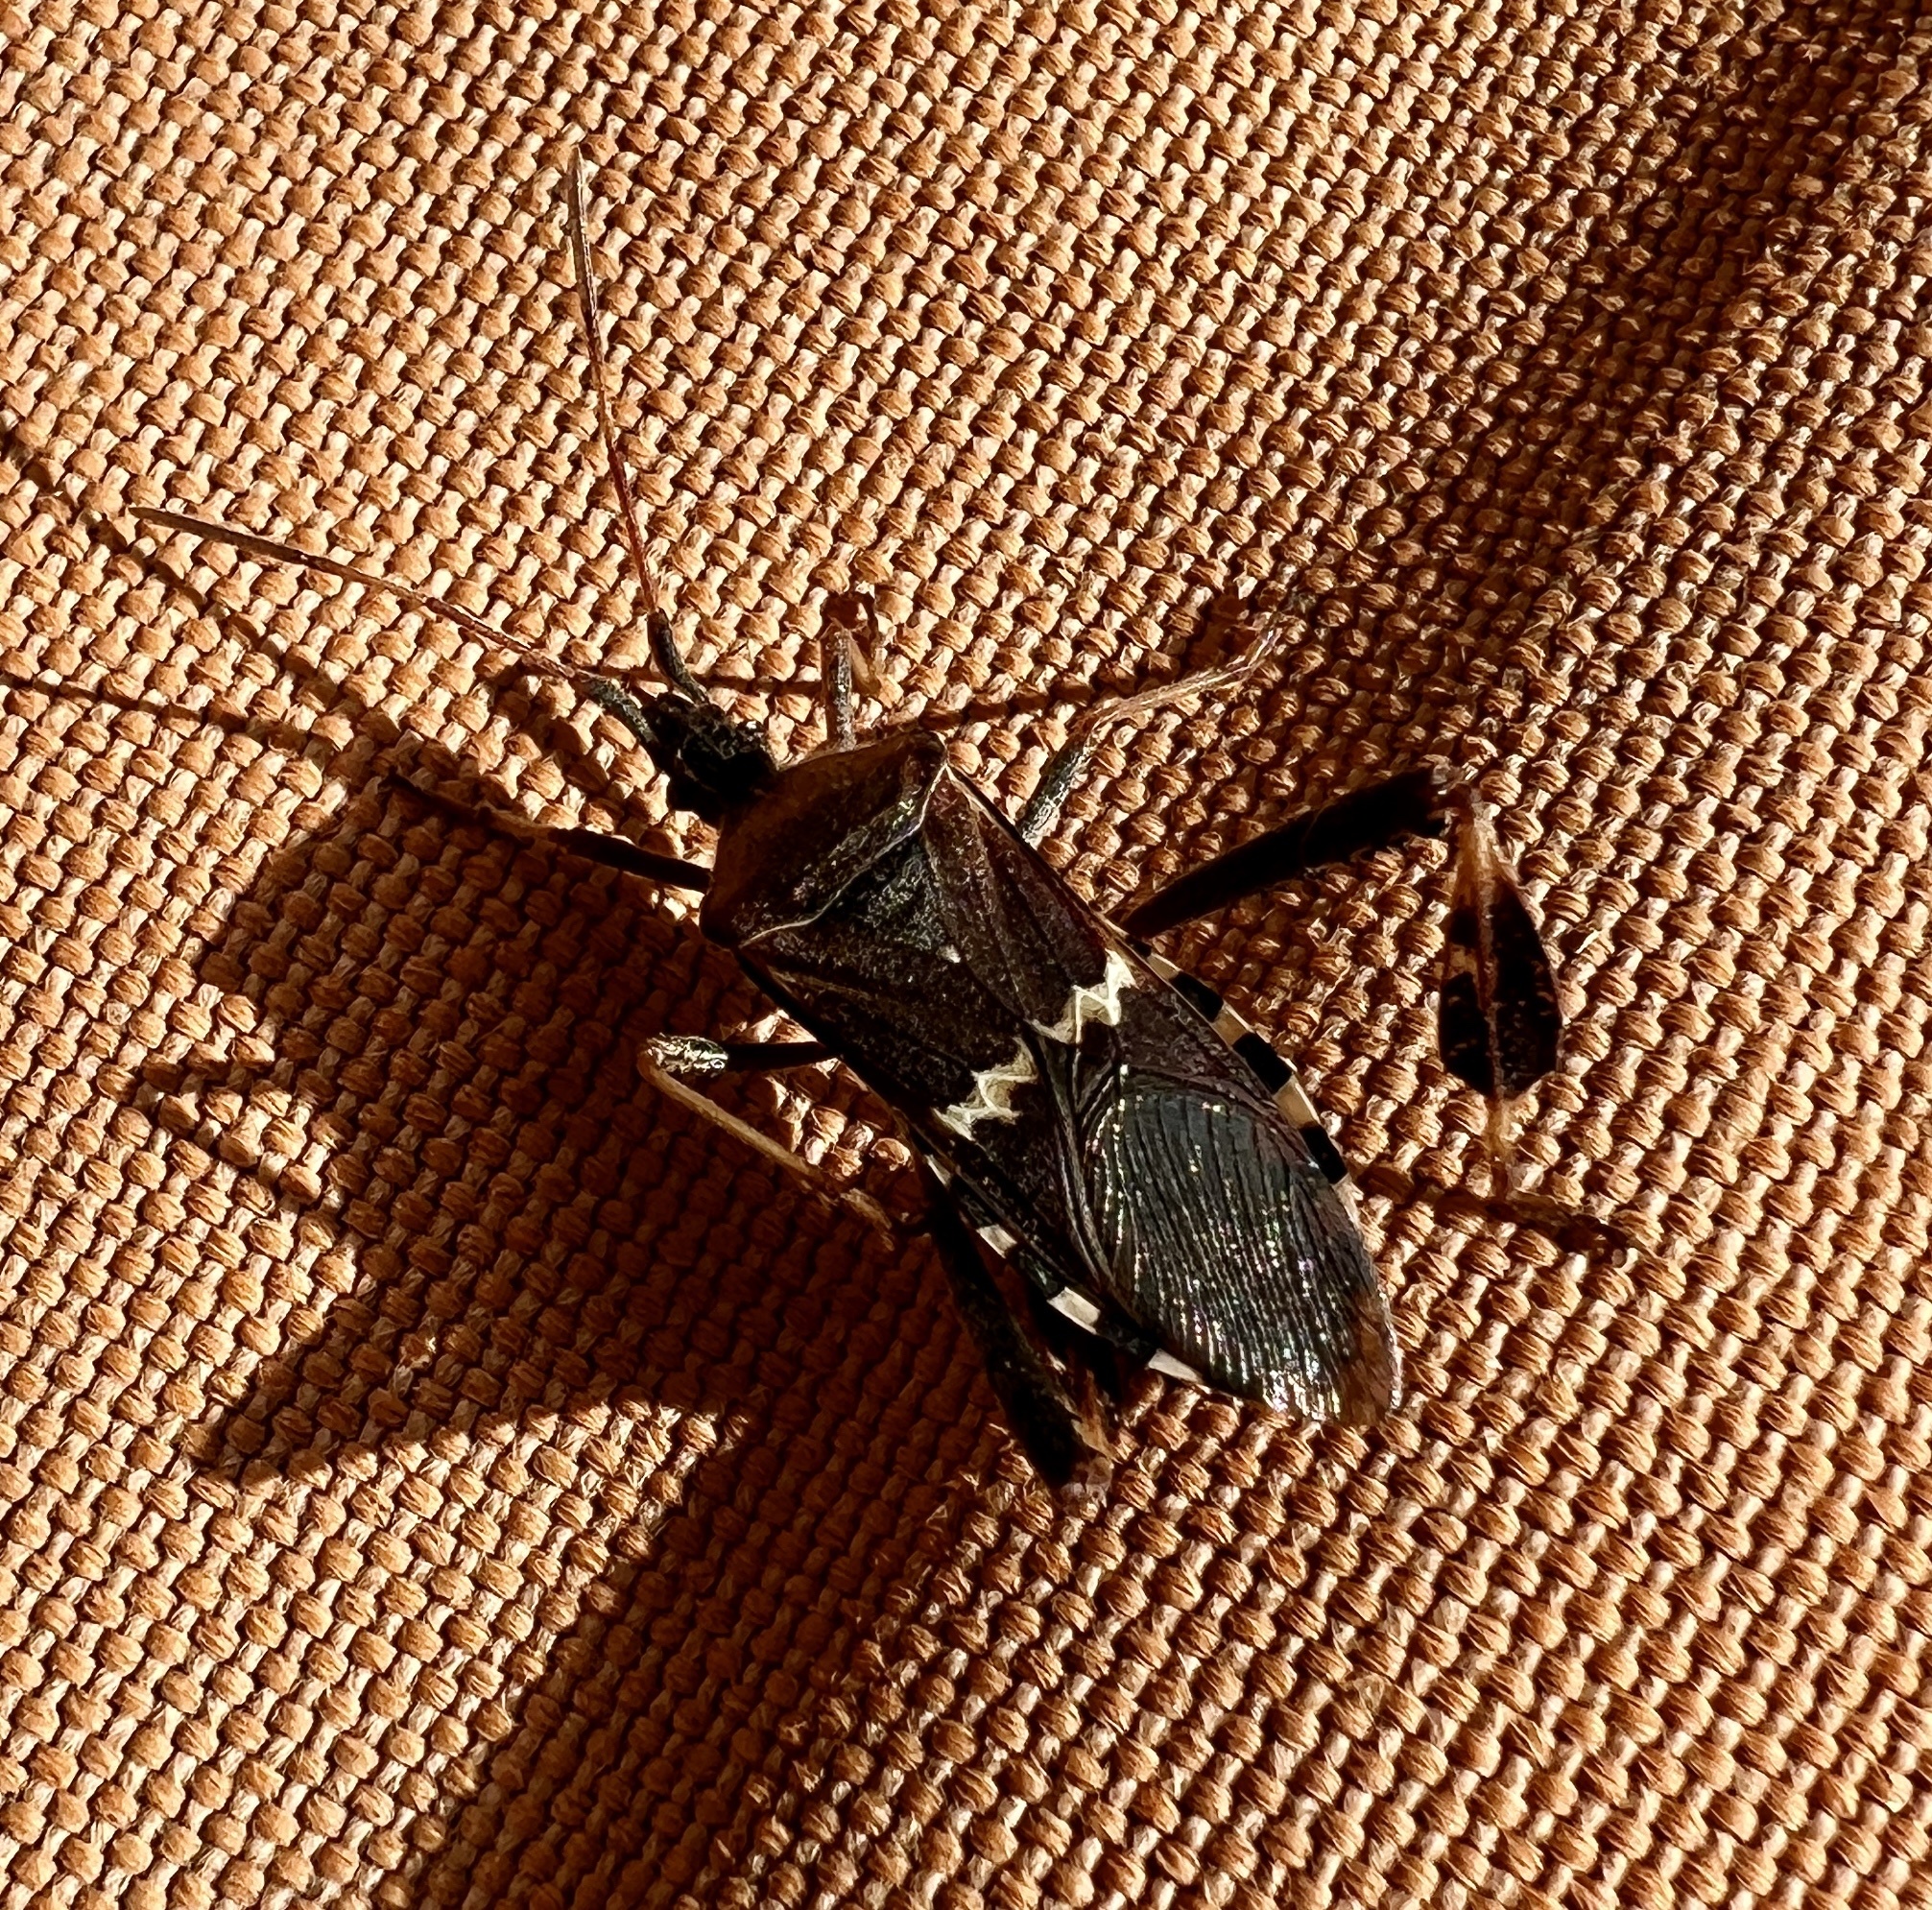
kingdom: Animalia
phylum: Arthropoda
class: Insecta
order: Hemiptera
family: Coreidae
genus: Leptoglossus
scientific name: Leptoglossus clypealis
